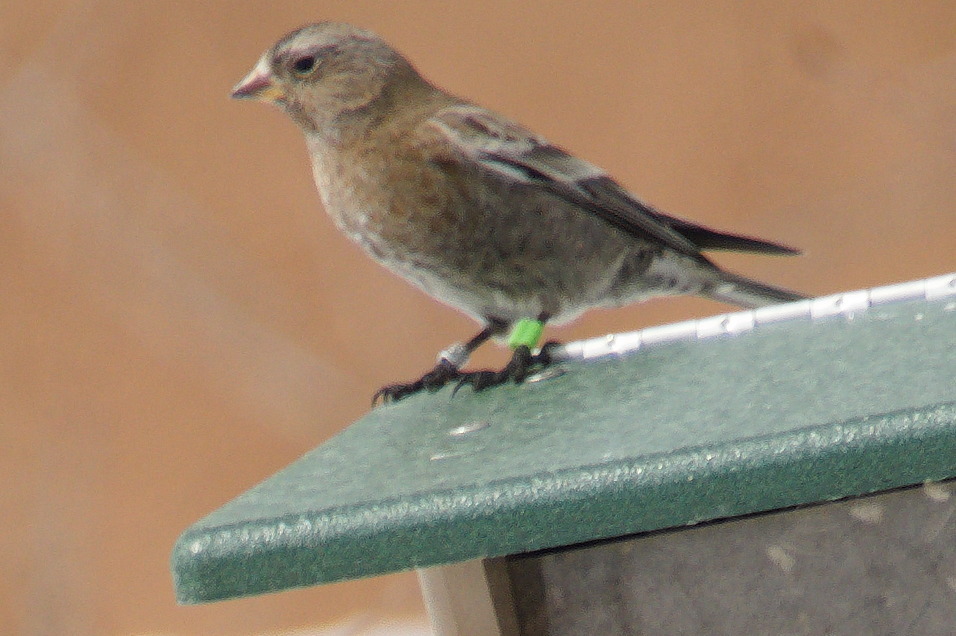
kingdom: Animalia
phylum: Chordata
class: Aves
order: Passeriformes
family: Fringillidae
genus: Leucosticte
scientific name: Leucosticte australis
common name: Brown-capped rosy-finch
